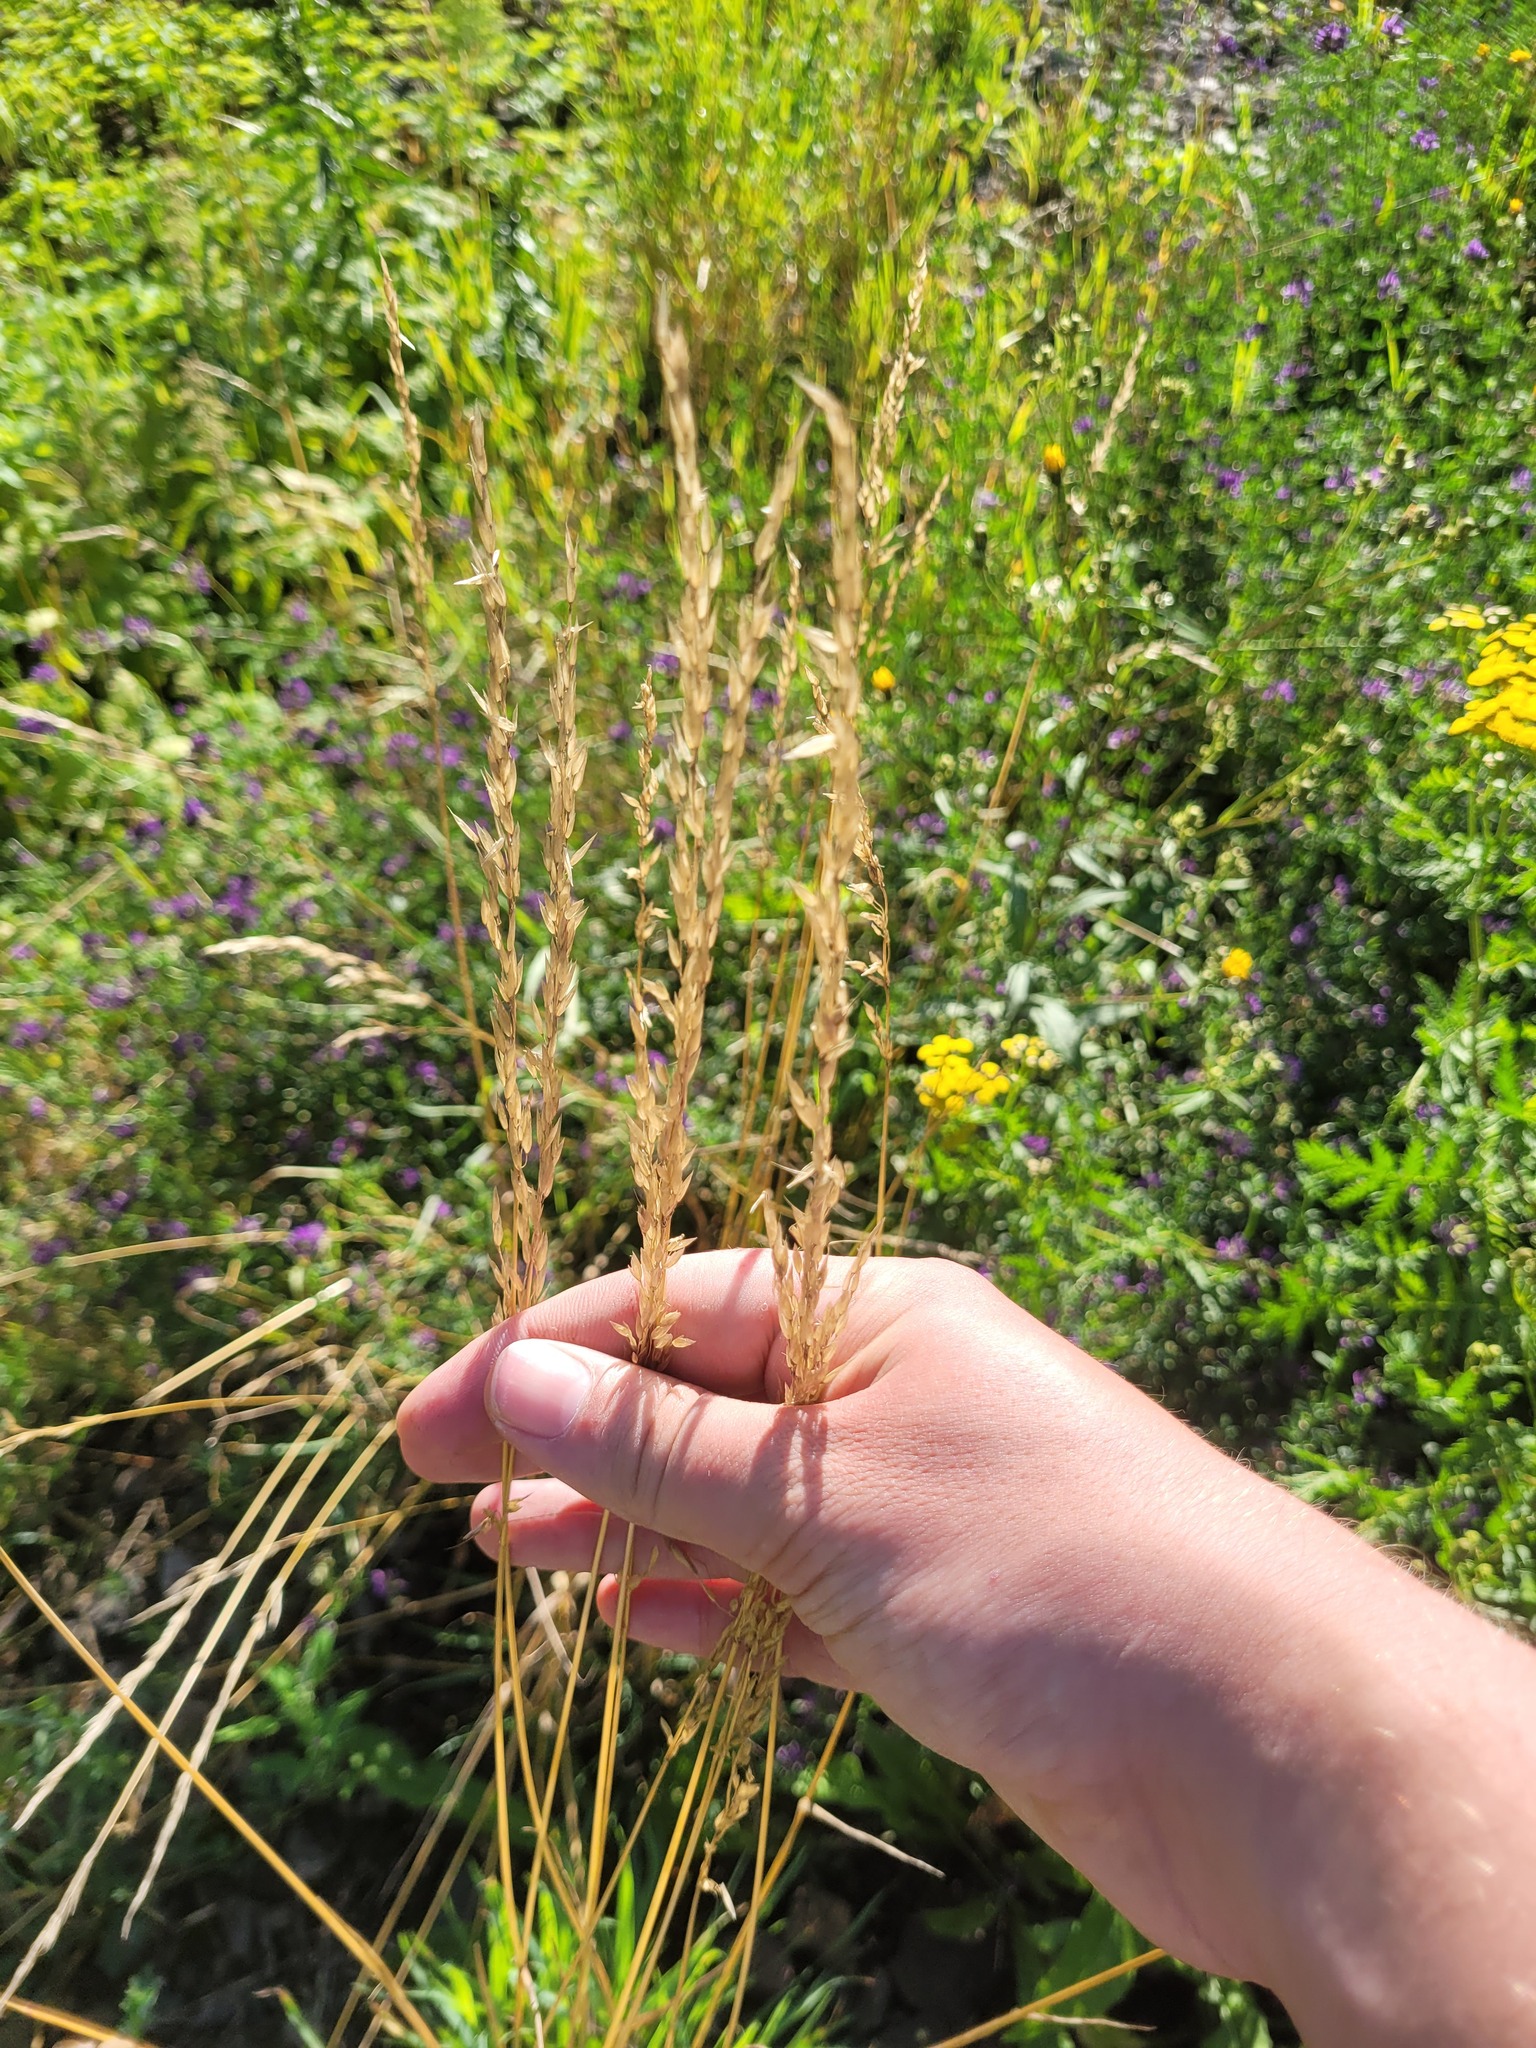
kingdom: Plantae
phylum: Tracheophyta
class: Liliopsida
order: Poales
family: Poaceae
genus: Arrhenatherum
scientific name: Arrhenatherum elatius
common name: Tall oatgrass
